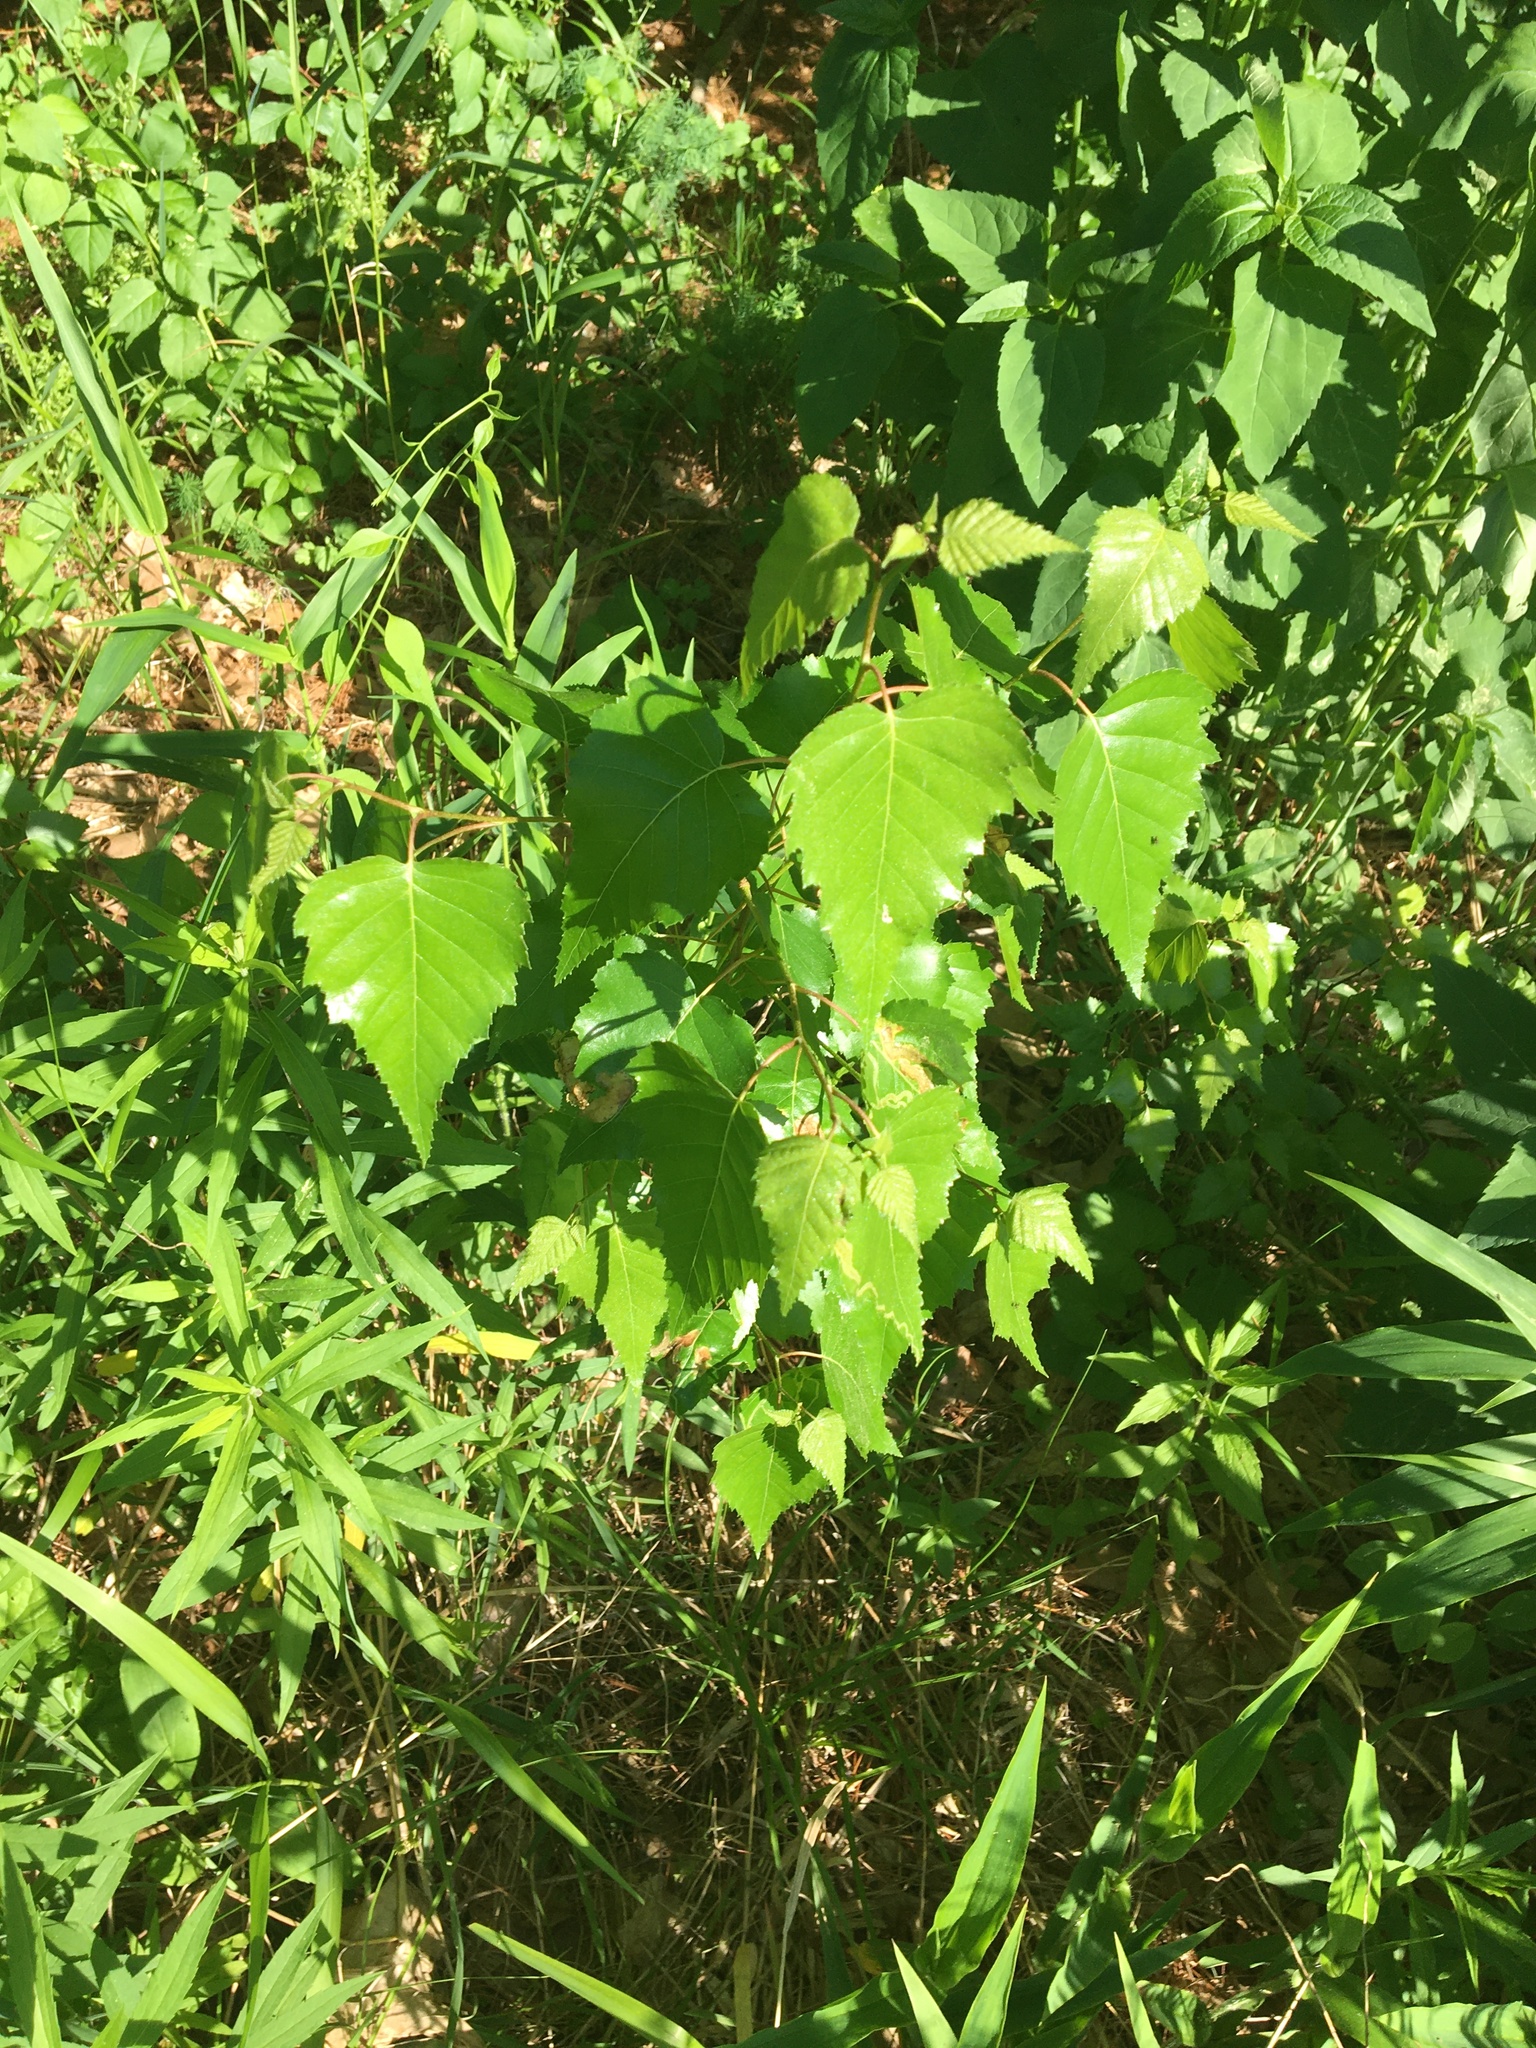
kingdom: Plantae
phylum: Tracheophyta
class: Magnoliopsida
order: Fagales
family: Betulaceae
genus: Betula
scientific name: Betula populifolia
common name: Fire birch
